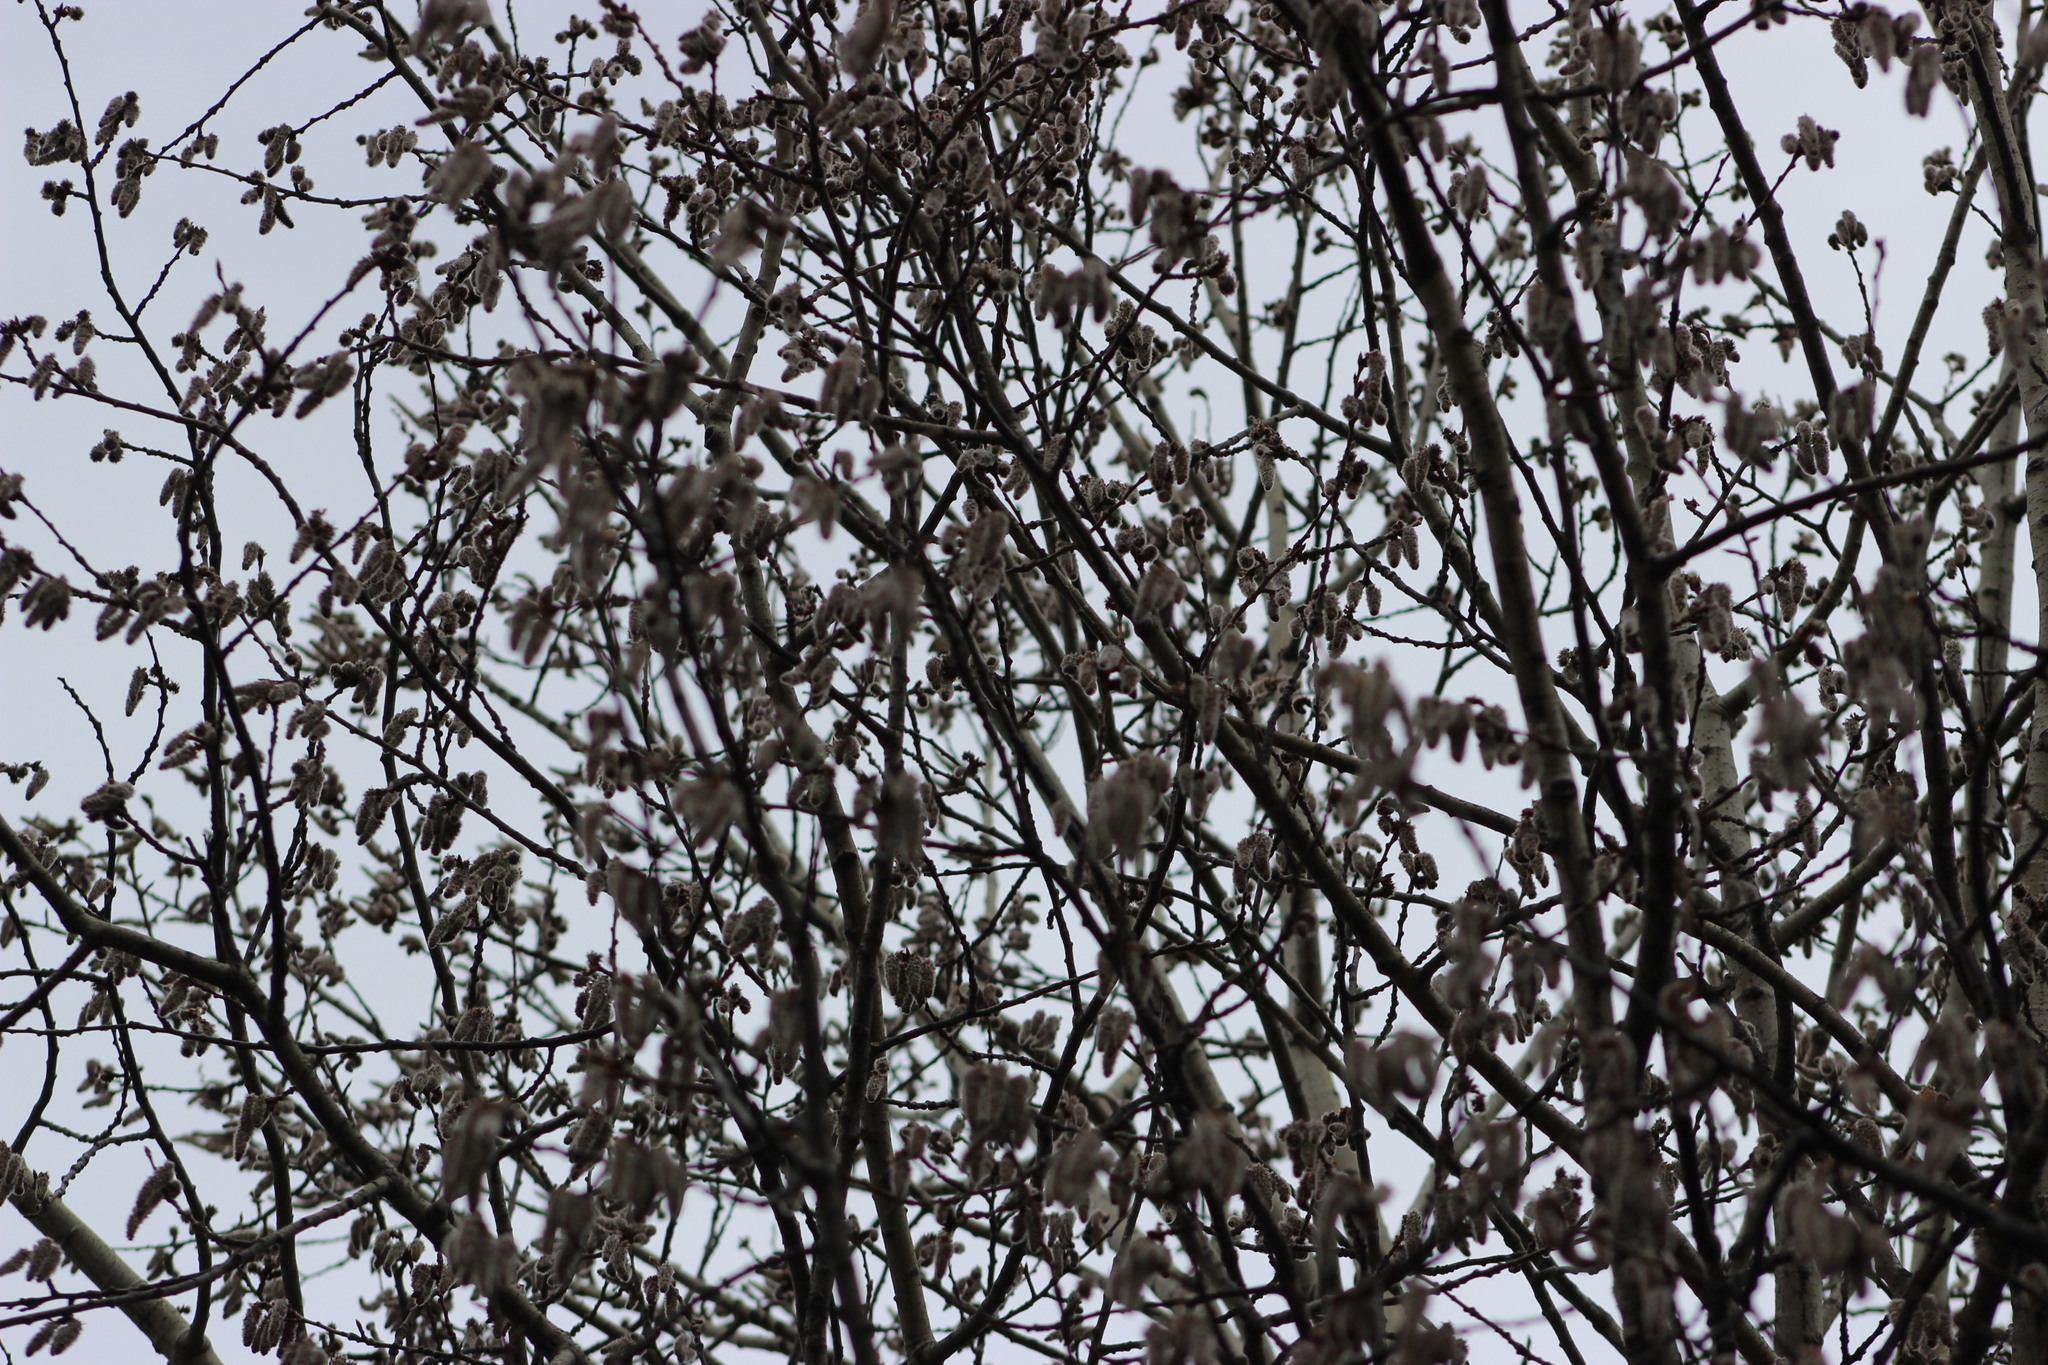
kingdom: Plantae
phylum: Tracheophyta
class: Magnoliopsida
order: Malpighiales
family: Salicaceae
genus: Populus
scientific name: Populus tremula
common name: European aspen
